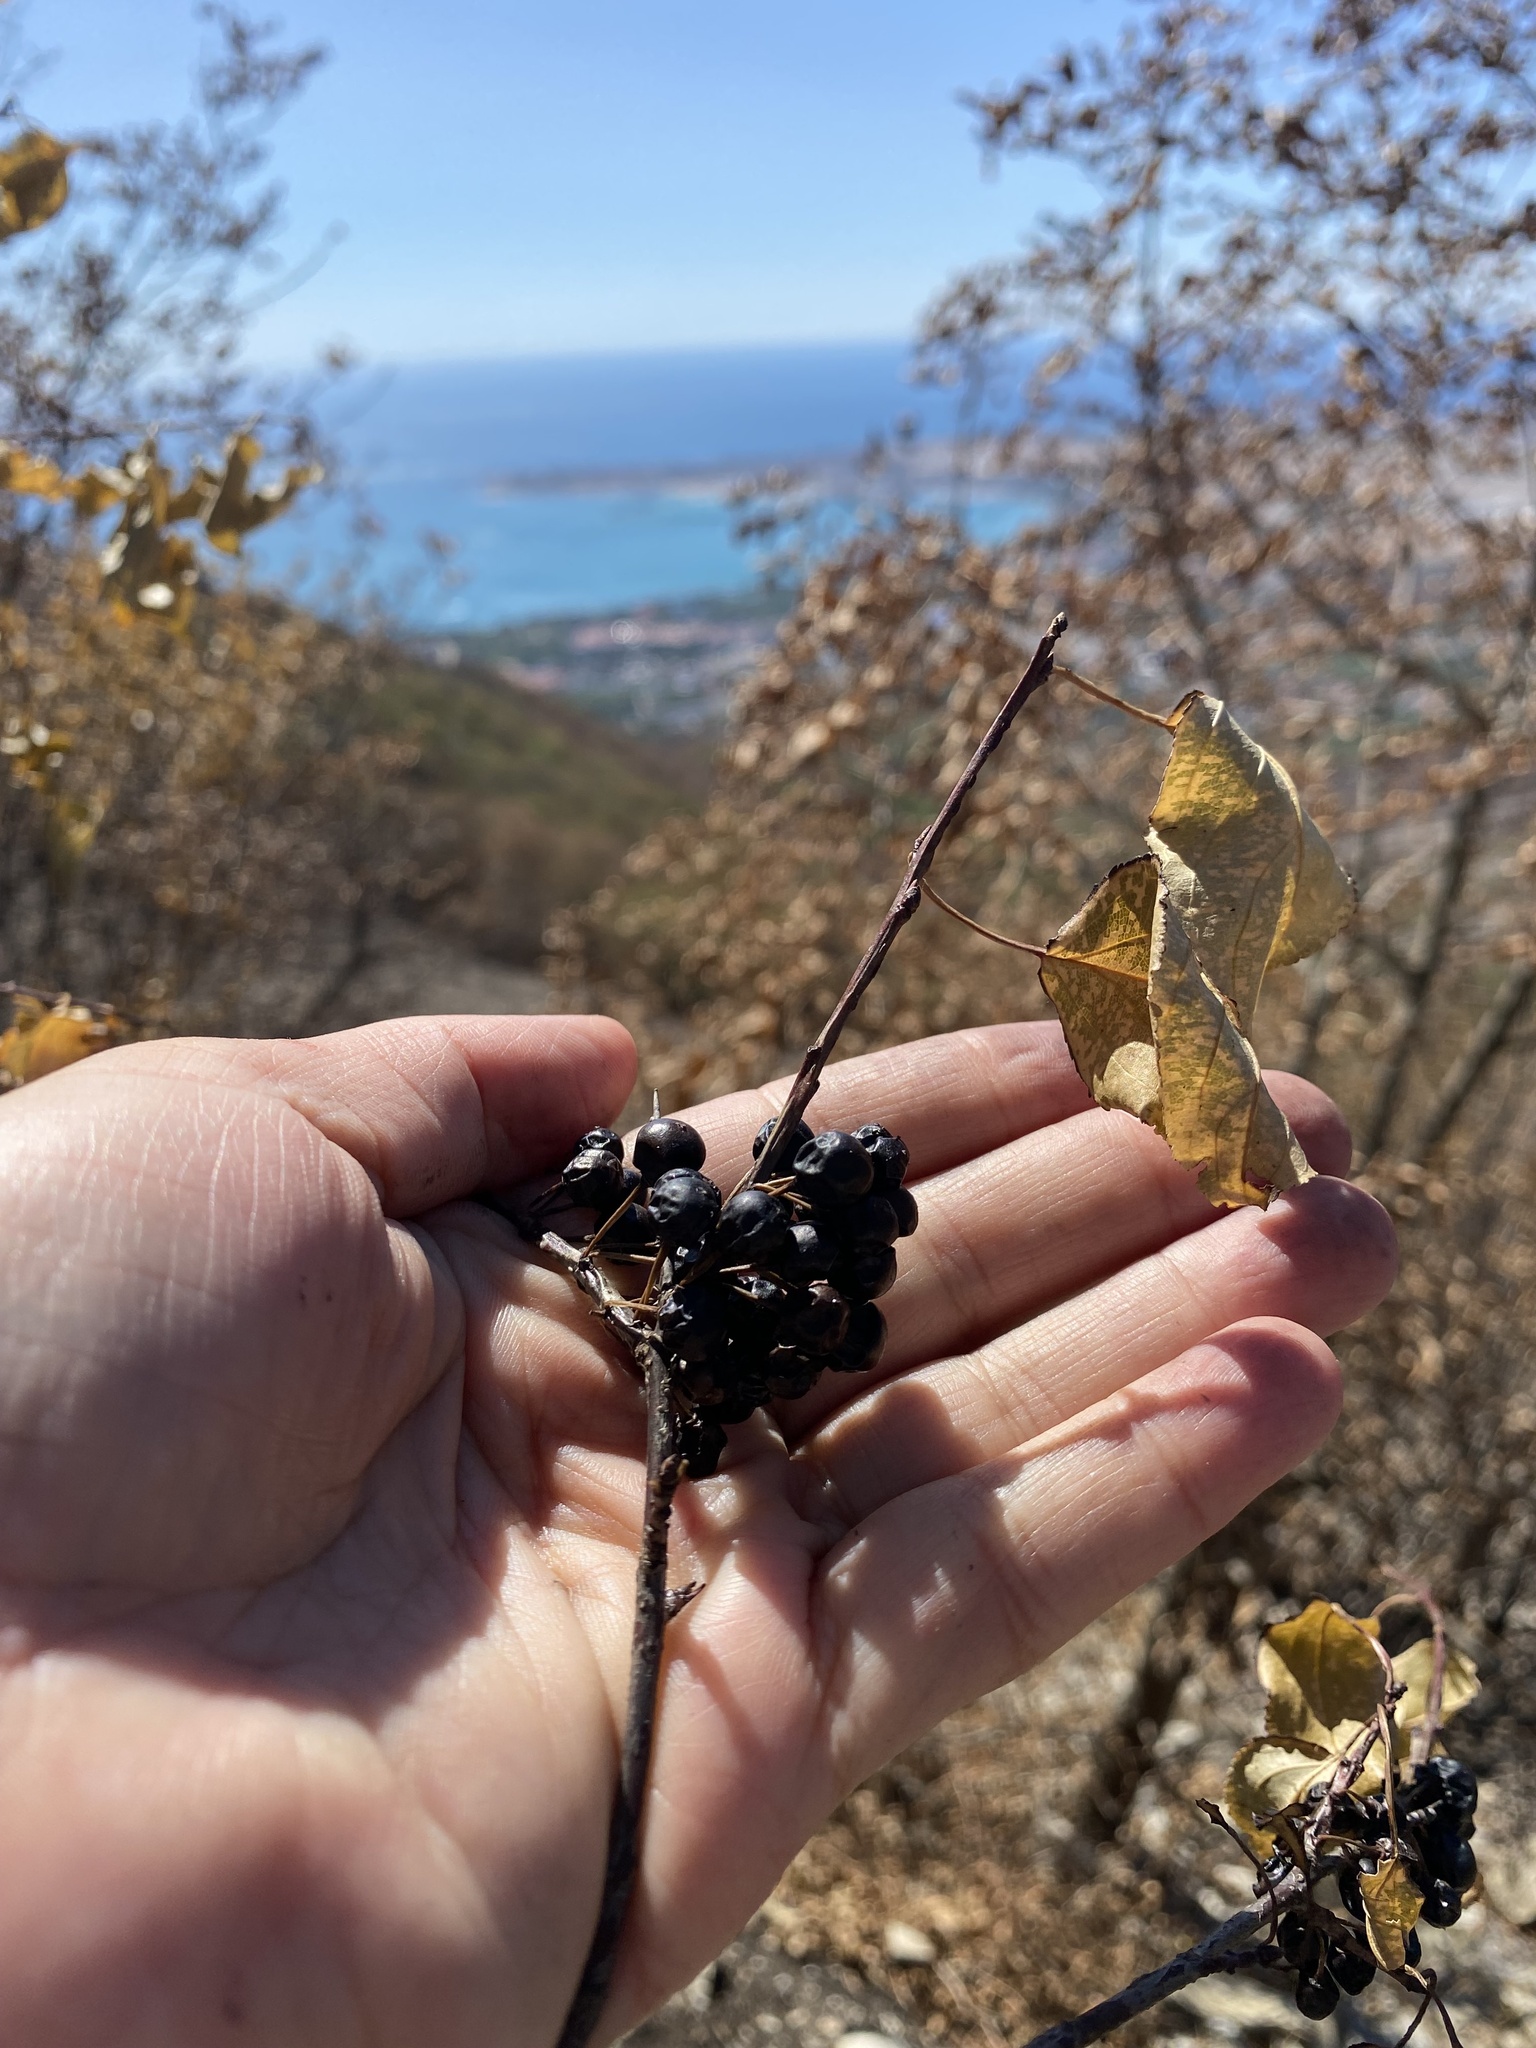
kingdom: Plantae
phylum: Tracheophyta
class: Magnoliopsida
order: Rosales
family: Rhamnaceae
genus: Rhamnus
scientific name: Rhamnus cathartica
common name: Common buckthorn
